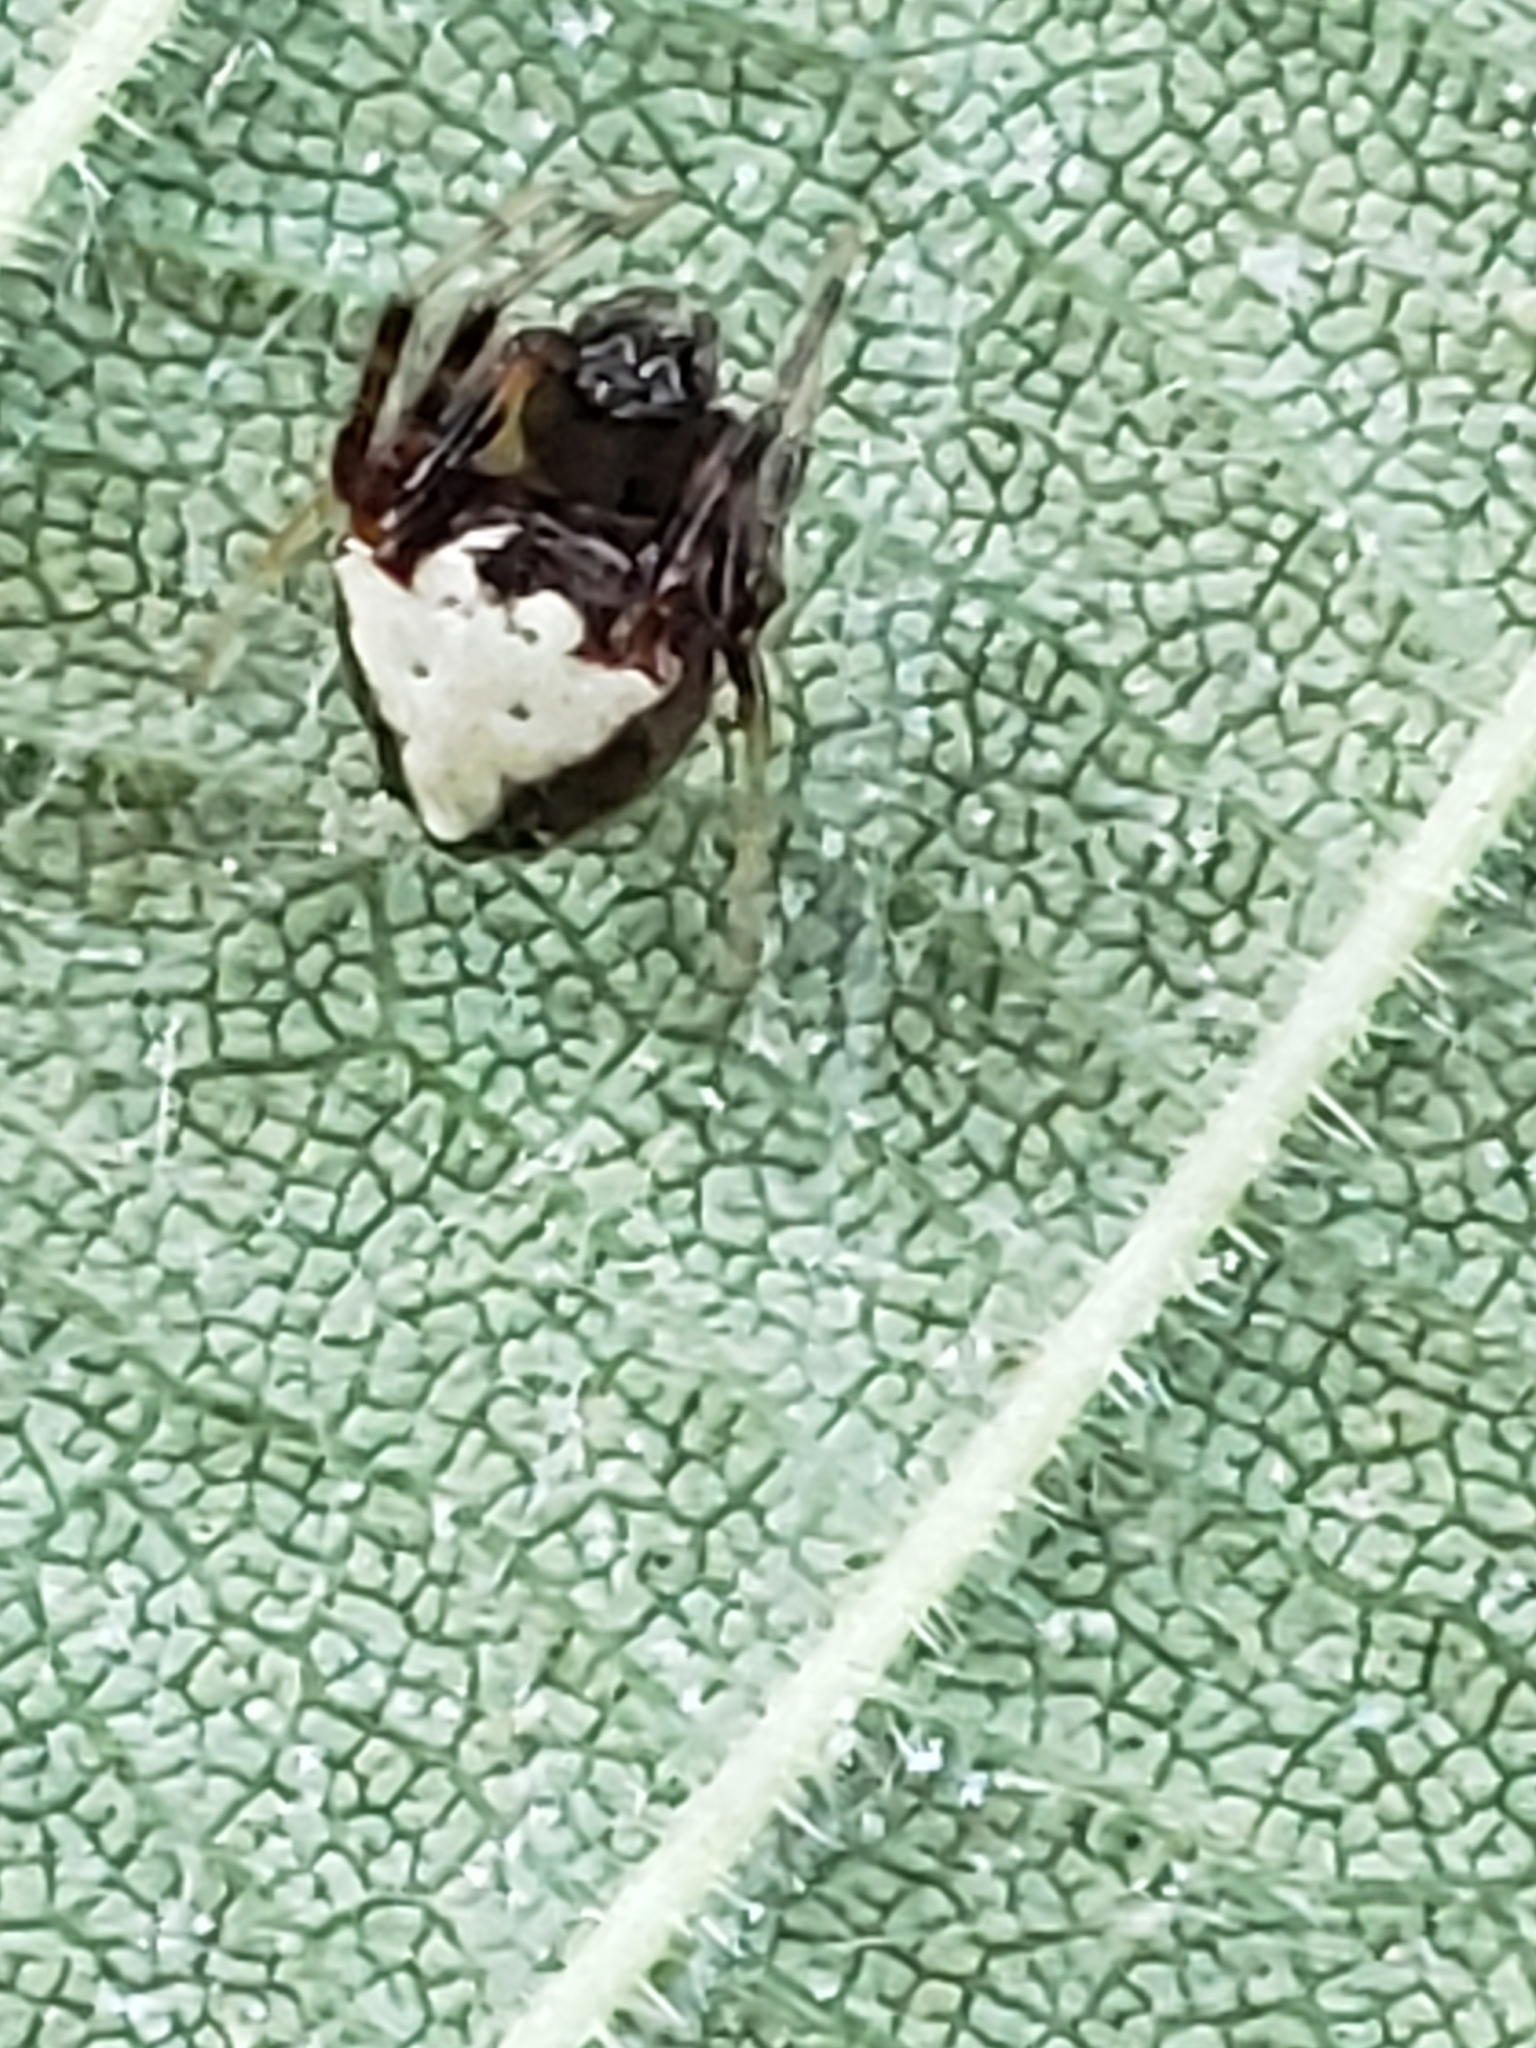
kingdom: Animalia
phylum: Arthropoda
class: Arachnida
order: Araneae
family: Araneidae
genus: Verrucosa
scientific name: Verrucosa arenata
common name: Orb weavers
